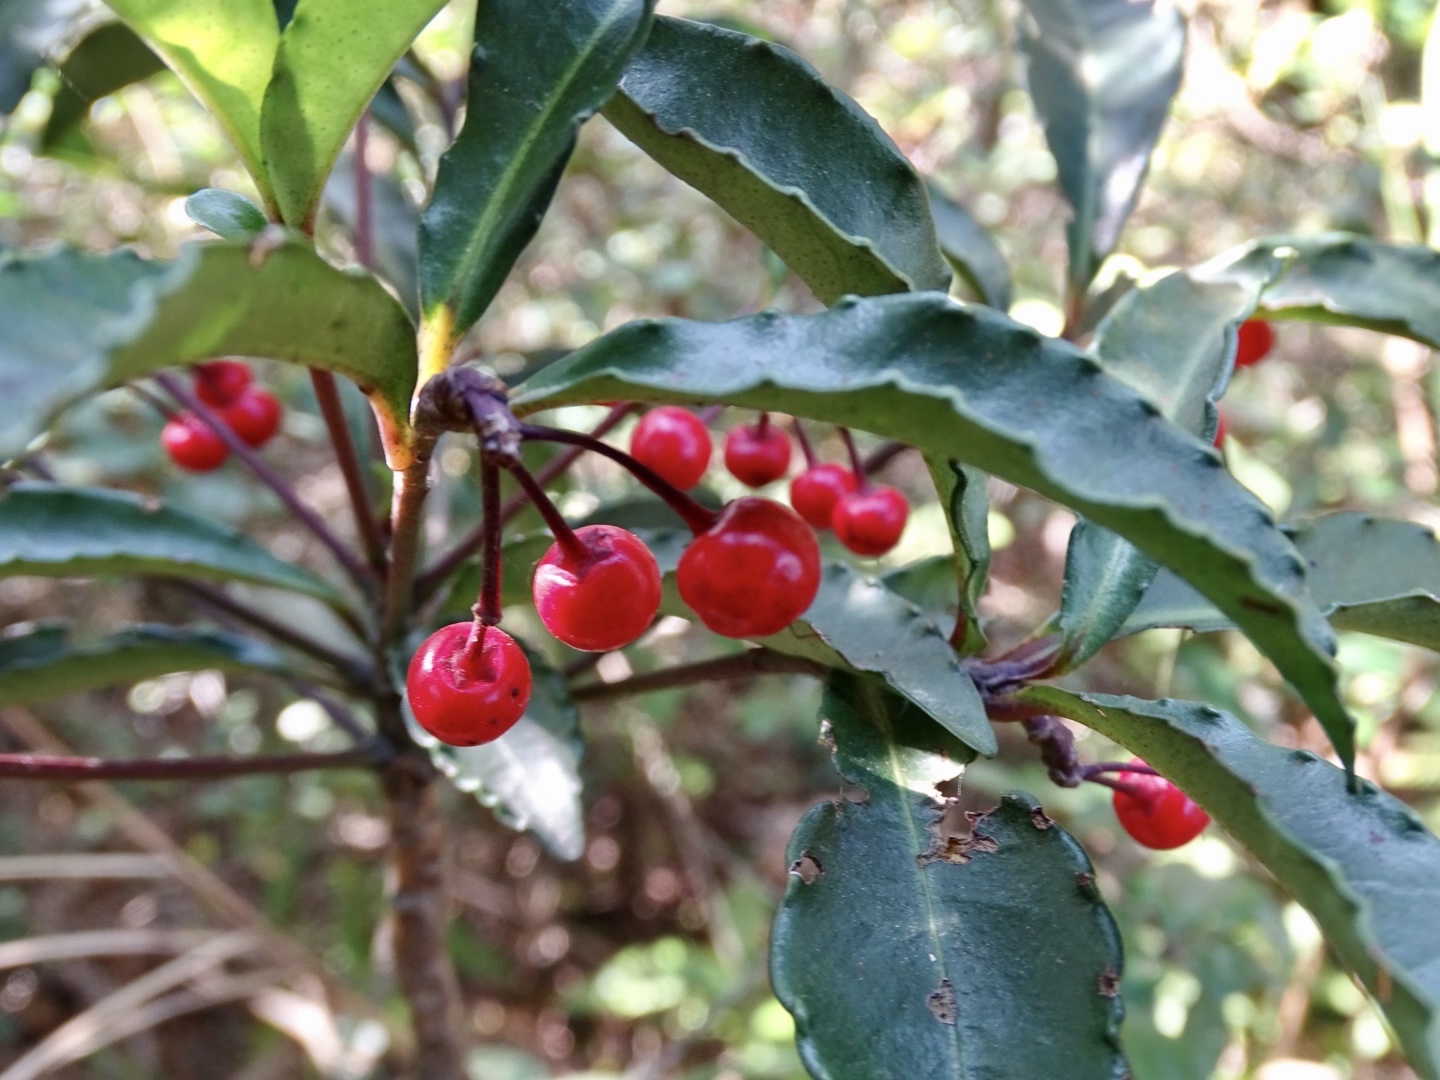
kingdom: Plantae
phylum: Tracheophyta
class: Magnoliopsida
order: Ericales
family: Primulaceae
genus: Ardisia
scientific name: Ardisia crenata
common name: Hen's eyes
